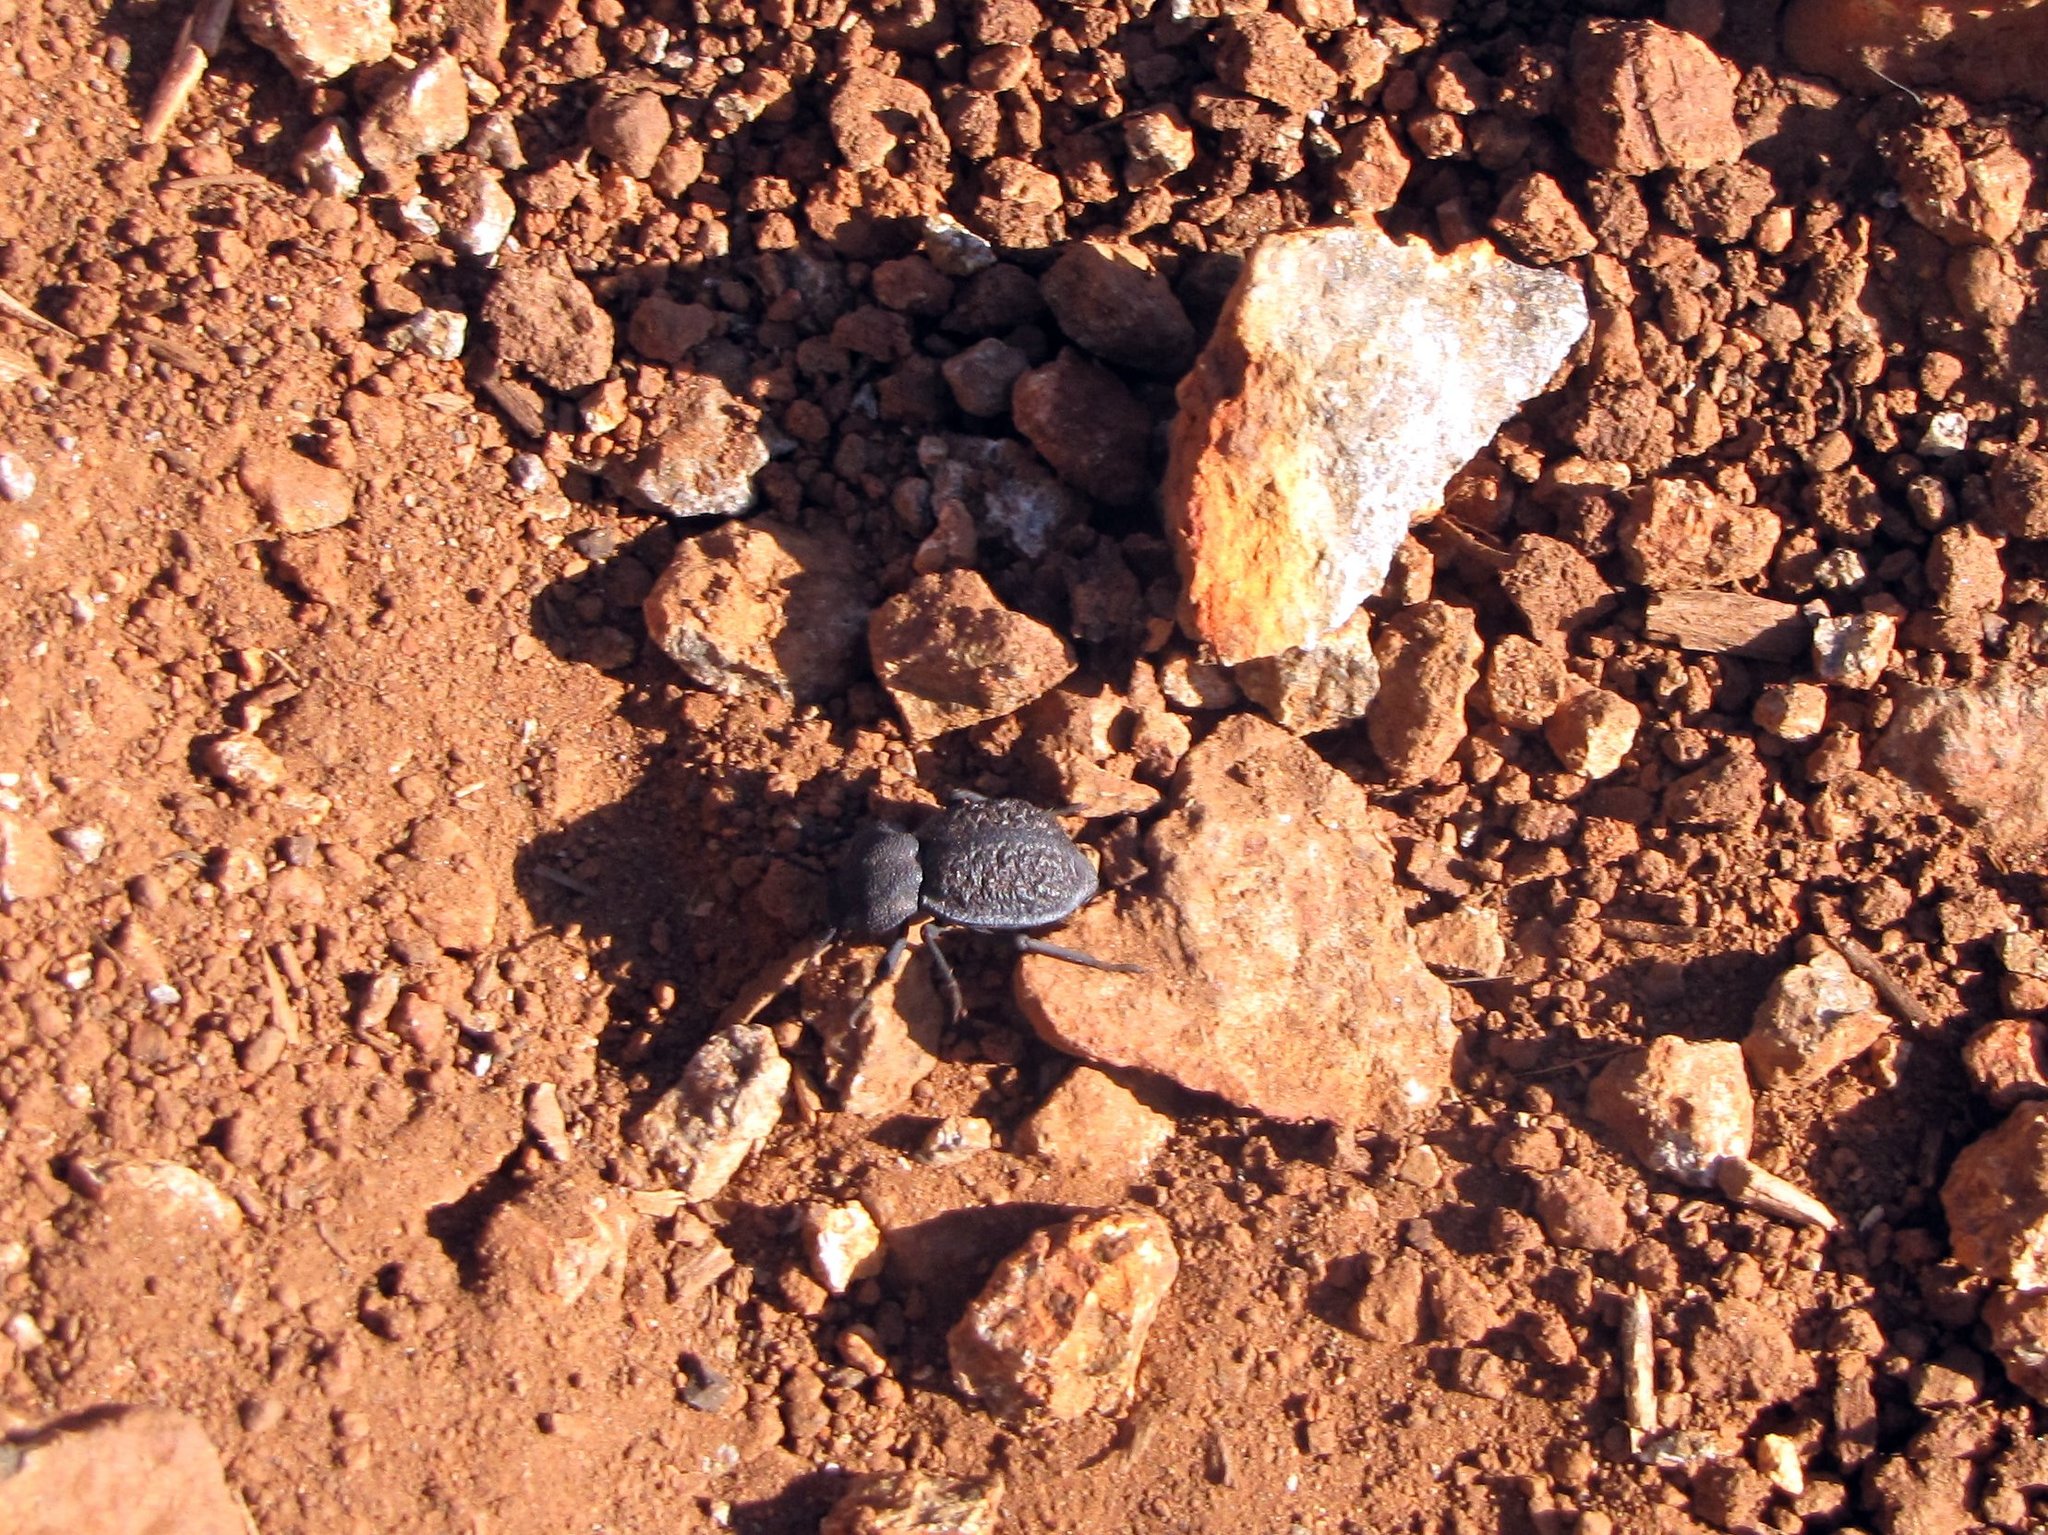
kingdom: Animalia
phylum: Arthropoda
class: Insecta
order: Coleoptera
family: Tenebrionidae
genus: Microschatia
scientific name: Microschatia inaequalis
